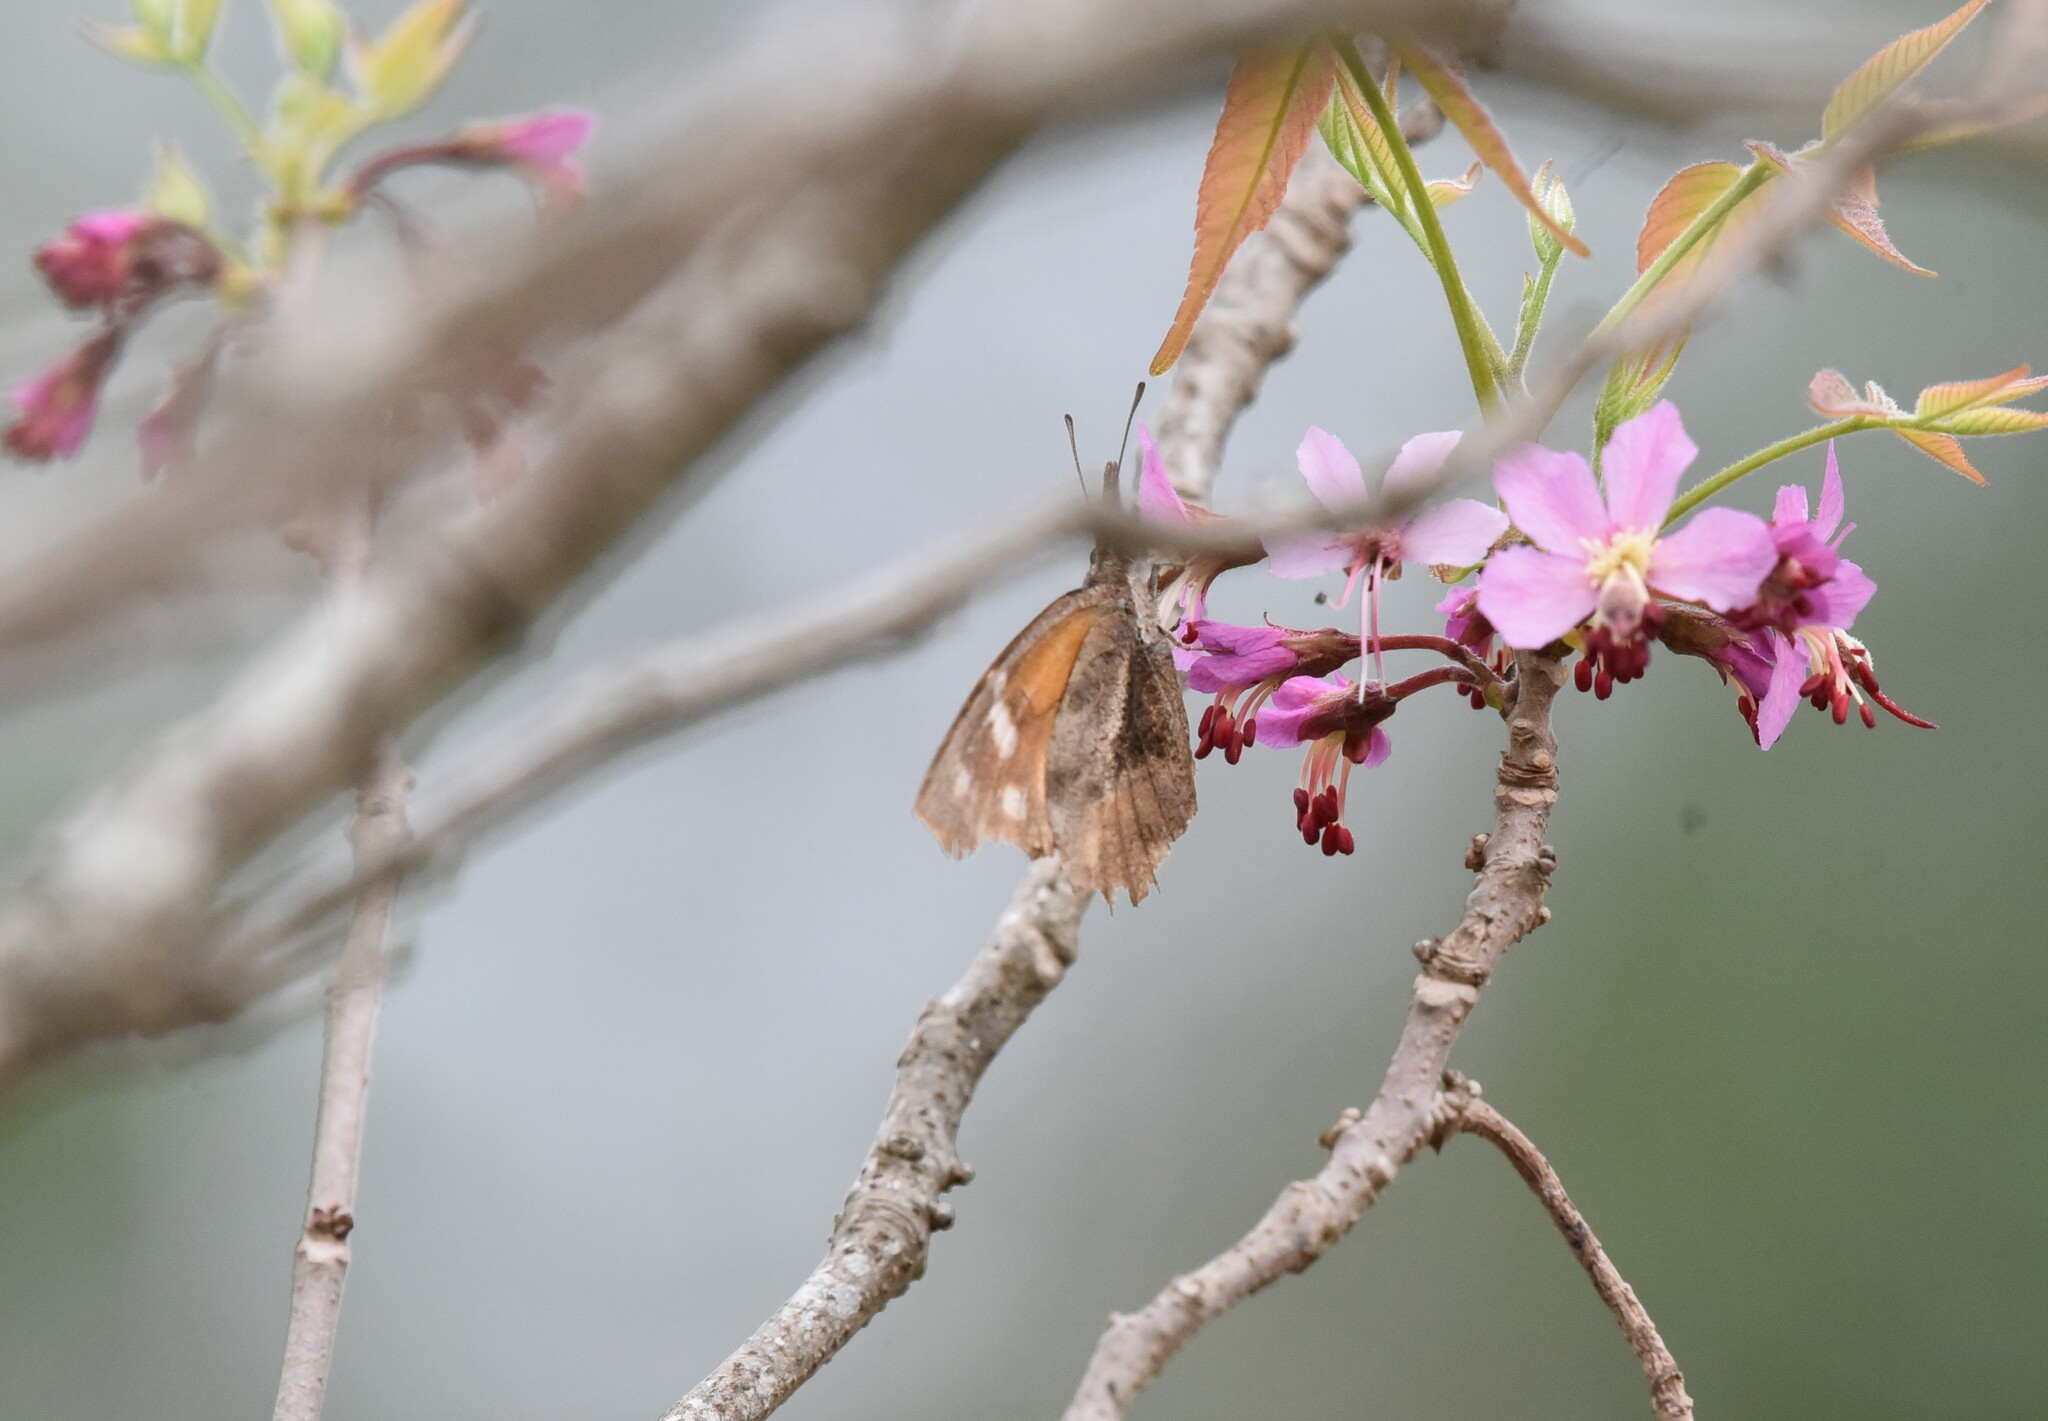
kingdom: Animalia
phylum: Arthropoda
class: Insecta
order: Lepidoptera
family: Nymphalidae
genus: Libytheana
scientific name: Libytheana carinenta
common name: American snout
